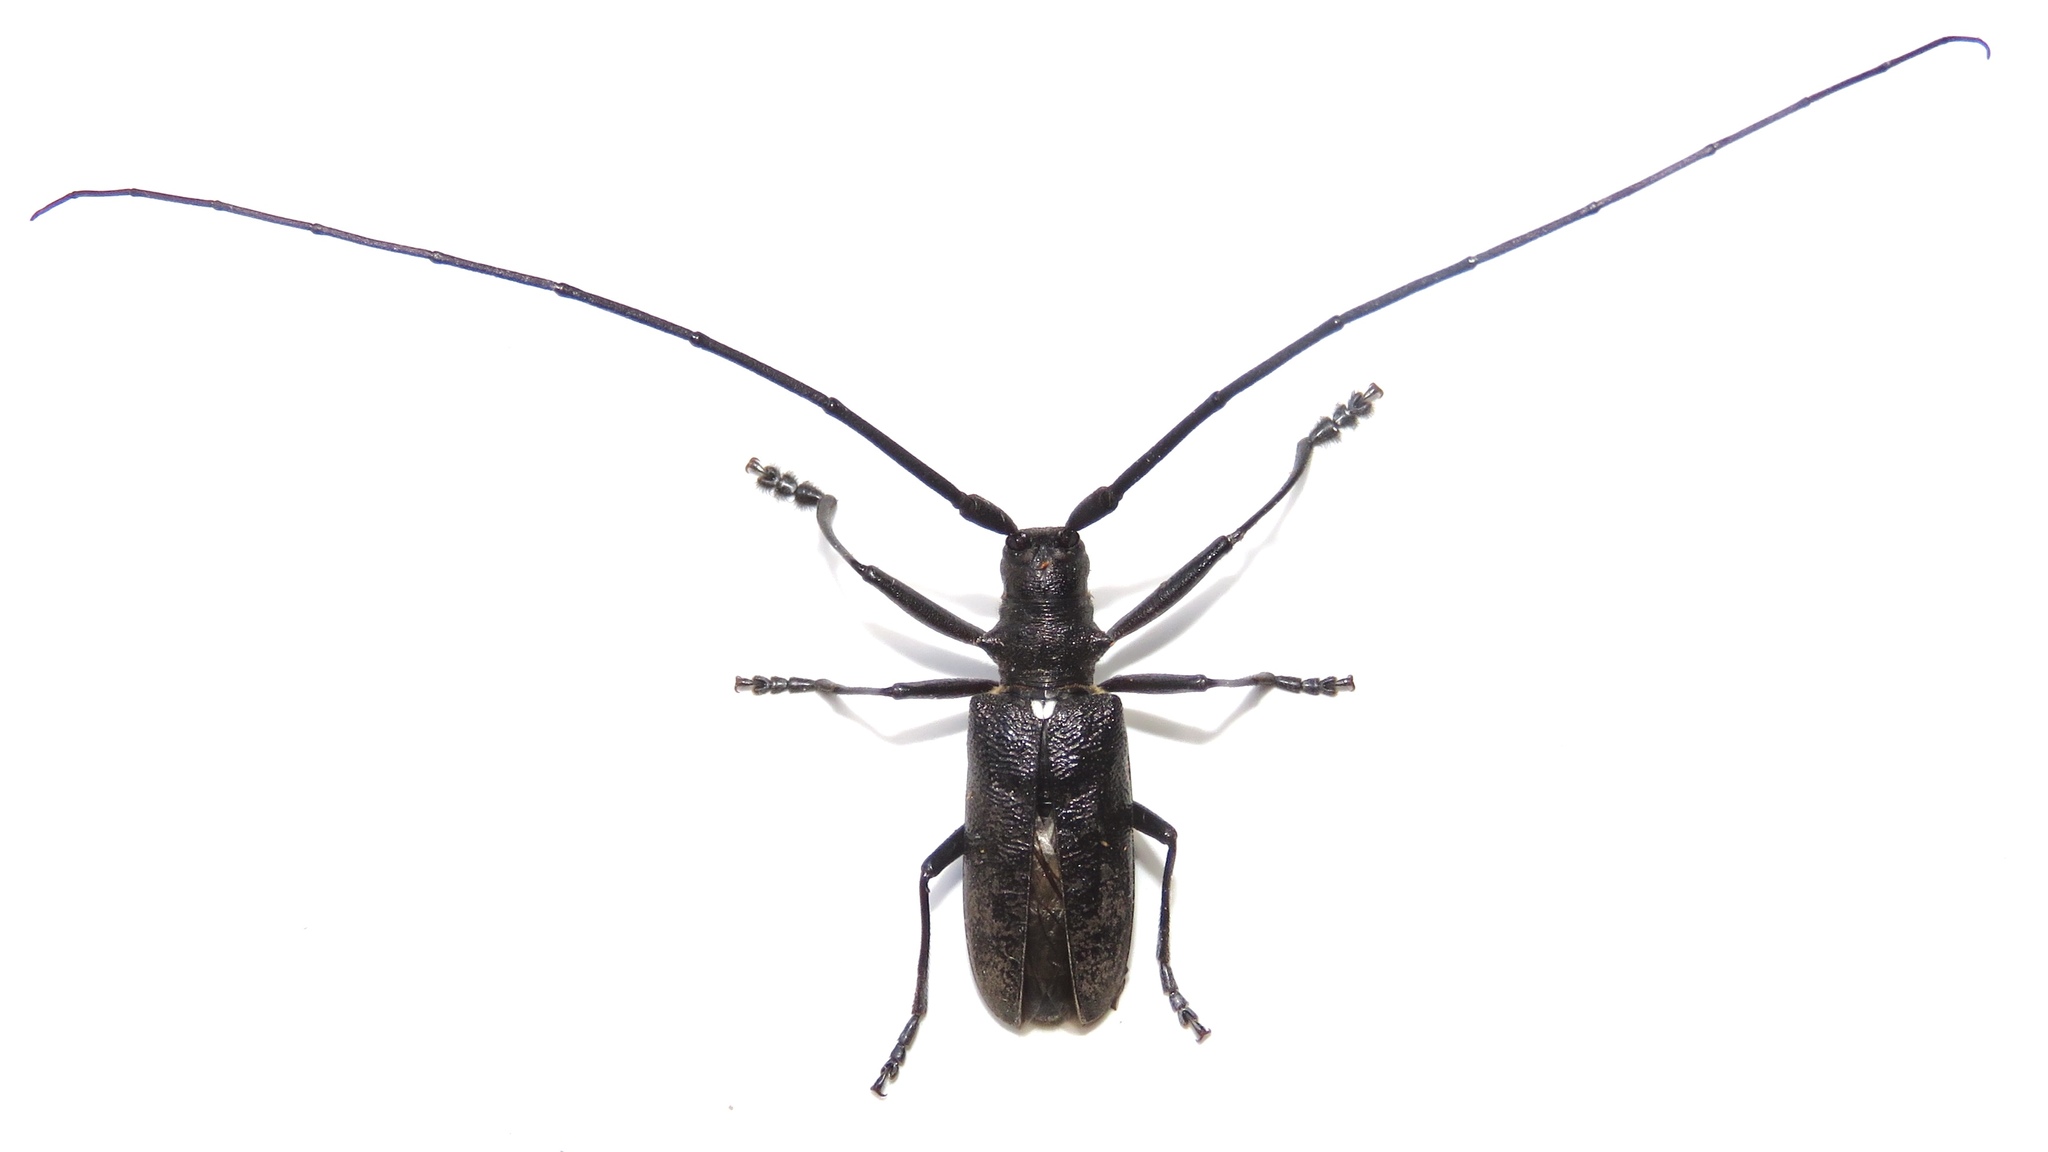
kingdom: Animalia
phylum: Arthropoda
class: Insecta
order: Coleoptera
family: Cerambycidae
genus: Monochamus
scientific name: Monochamus scutellatus
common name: White-spotted sawyer beetle
